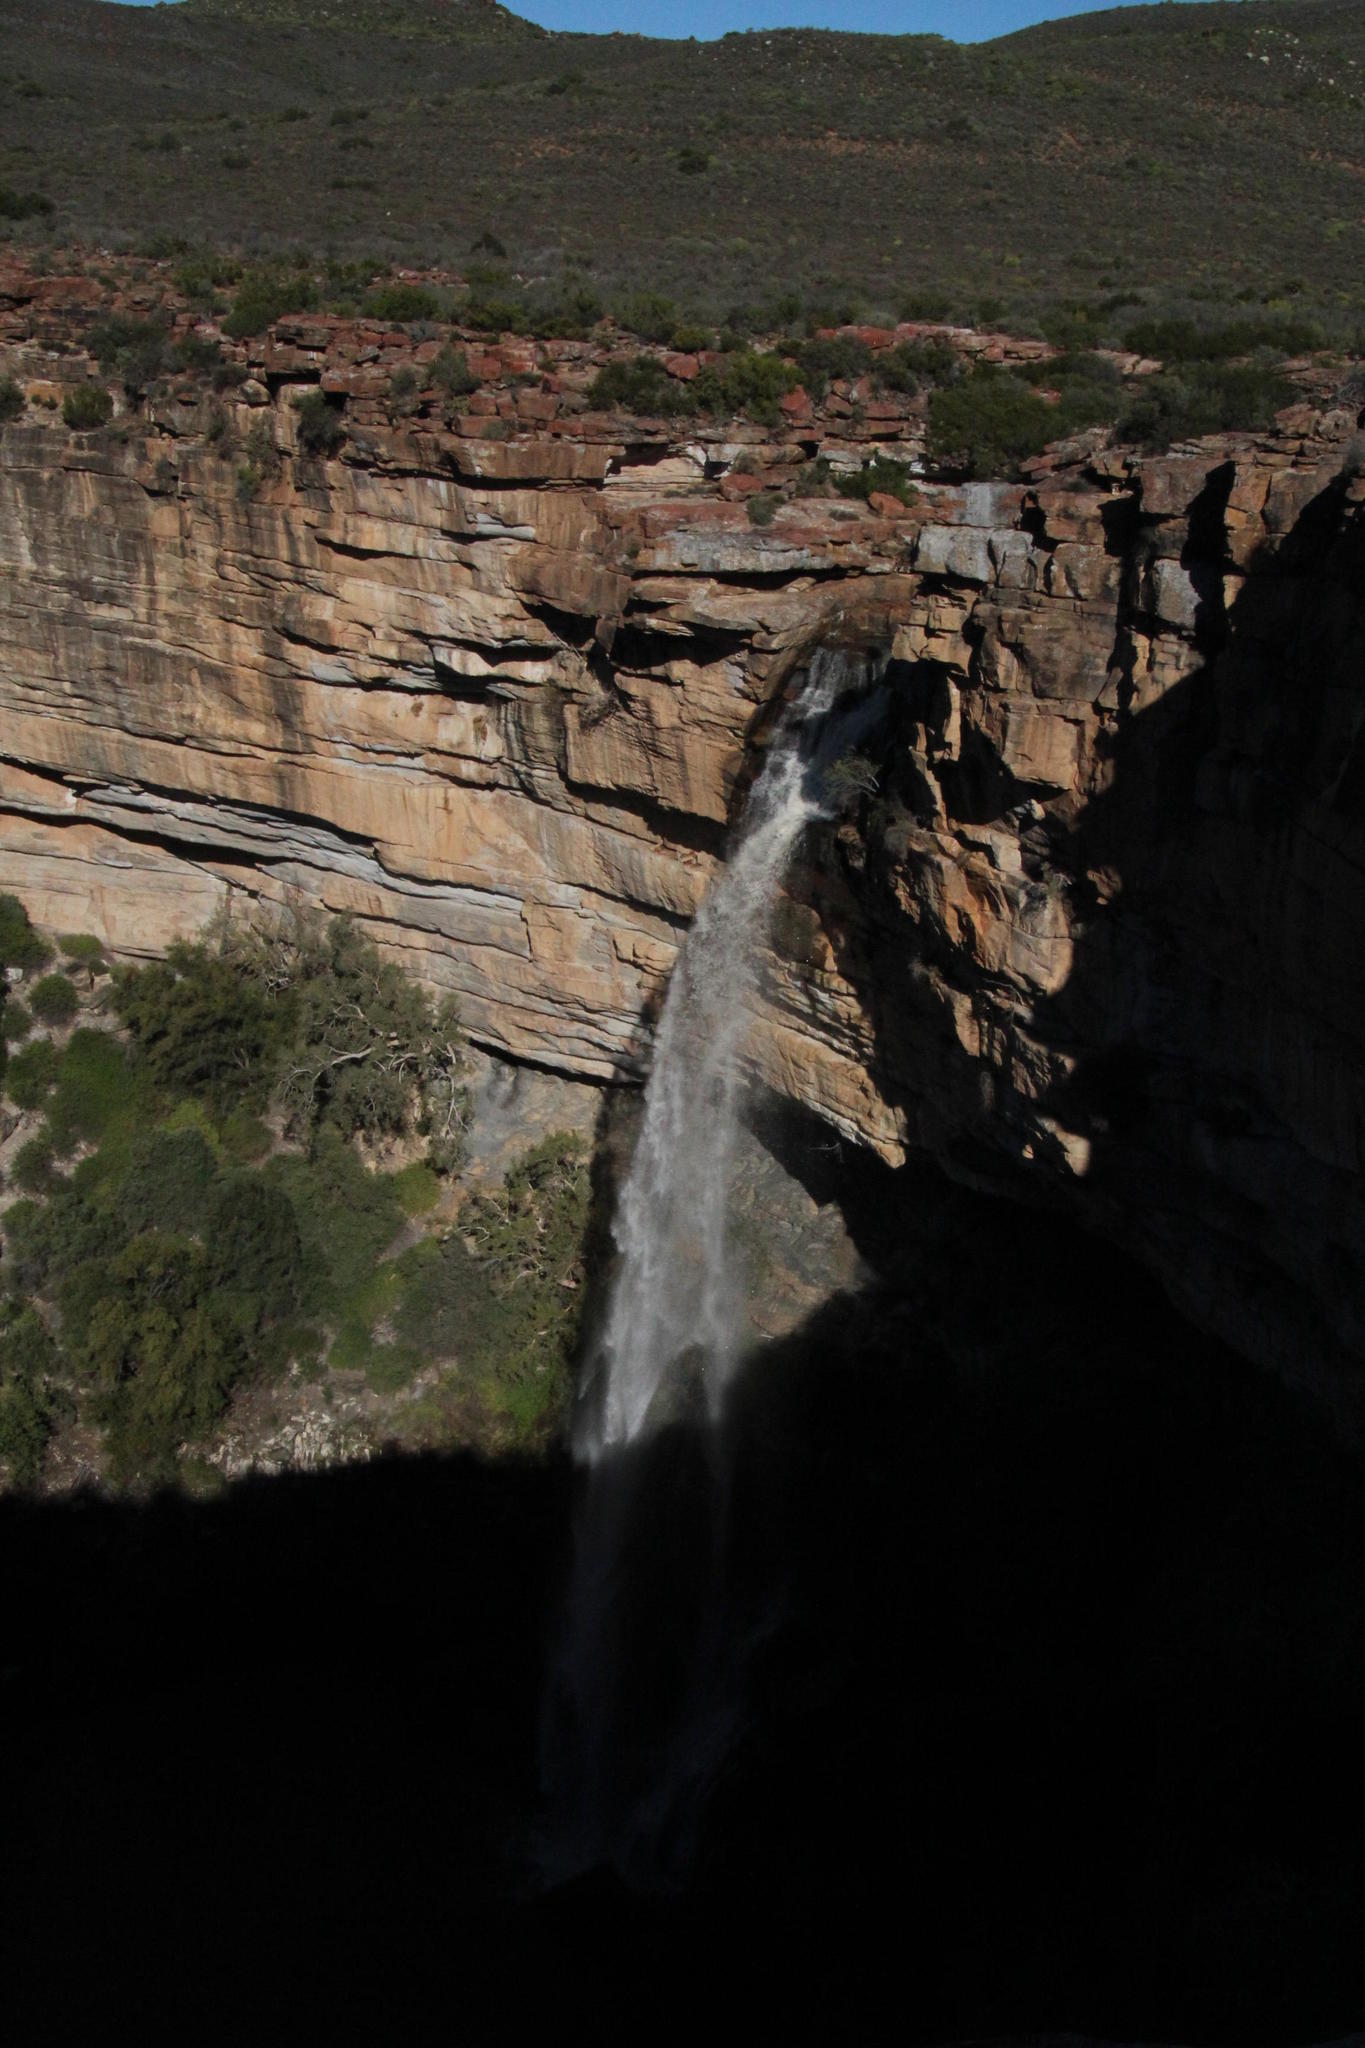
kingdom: Plantae
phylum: Tracheophyta
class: Magnoliopsida
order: Rosales
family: Moraceae
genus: Ficus
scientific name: Ficus cordata
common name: Namaqua rock fig
